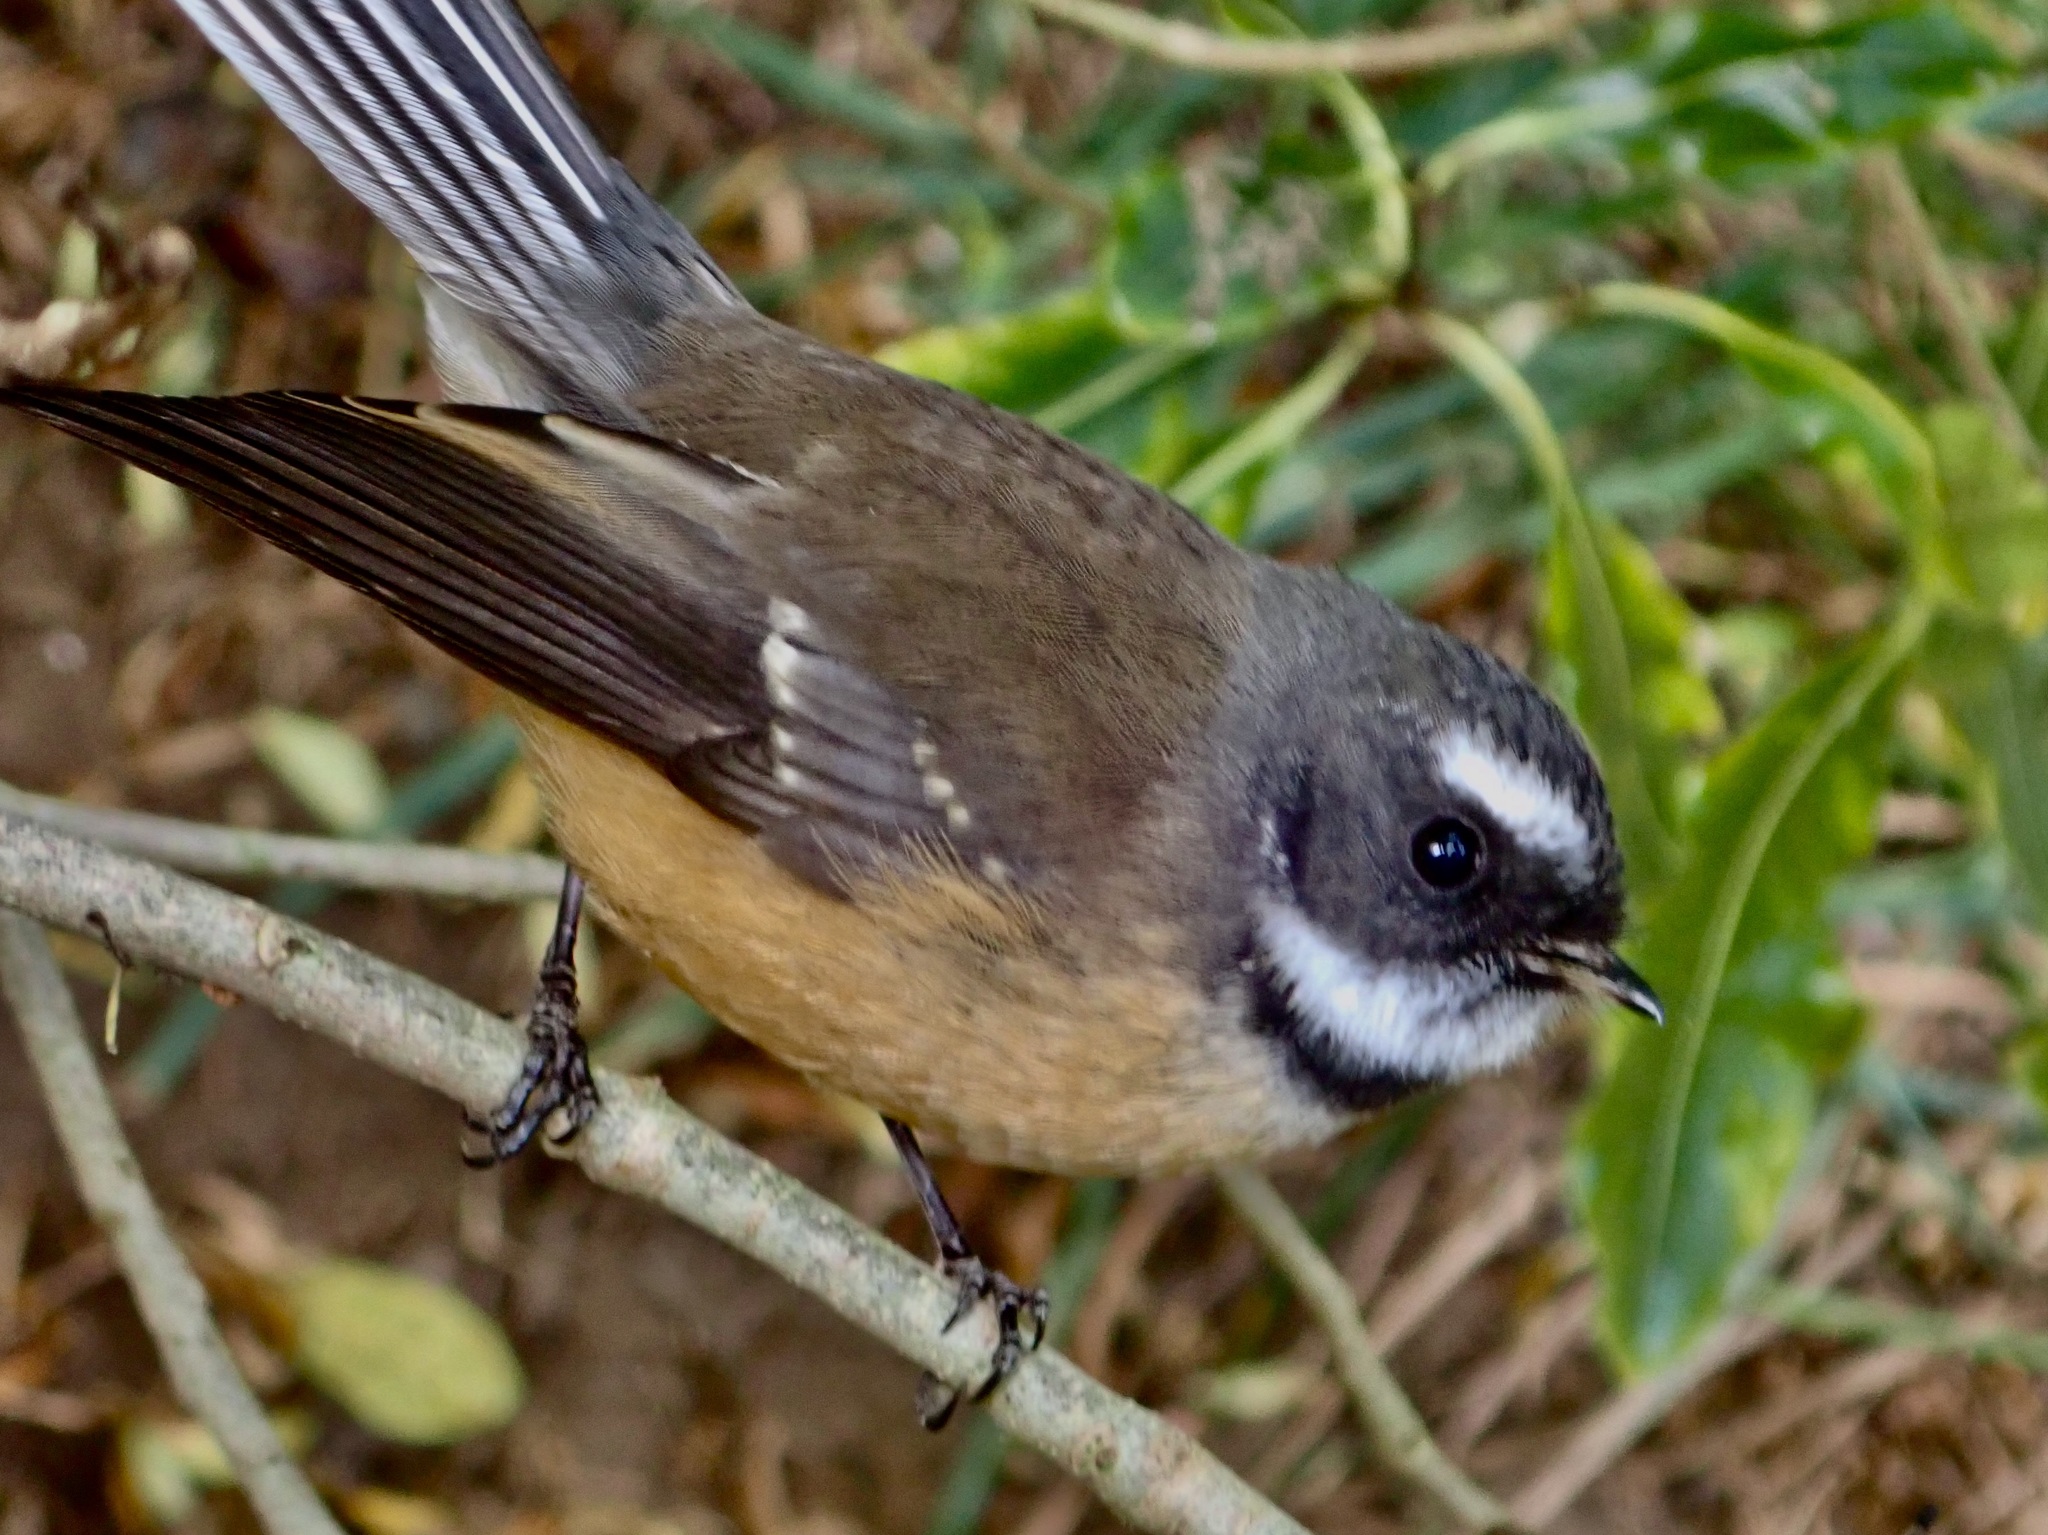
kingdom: Animalia
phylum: Chordata
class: Aves
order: Passeriformes
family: Rhipiduridae
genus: Rhipidura
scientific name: Rhipidura fuliginosa
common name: New zealand fantail
